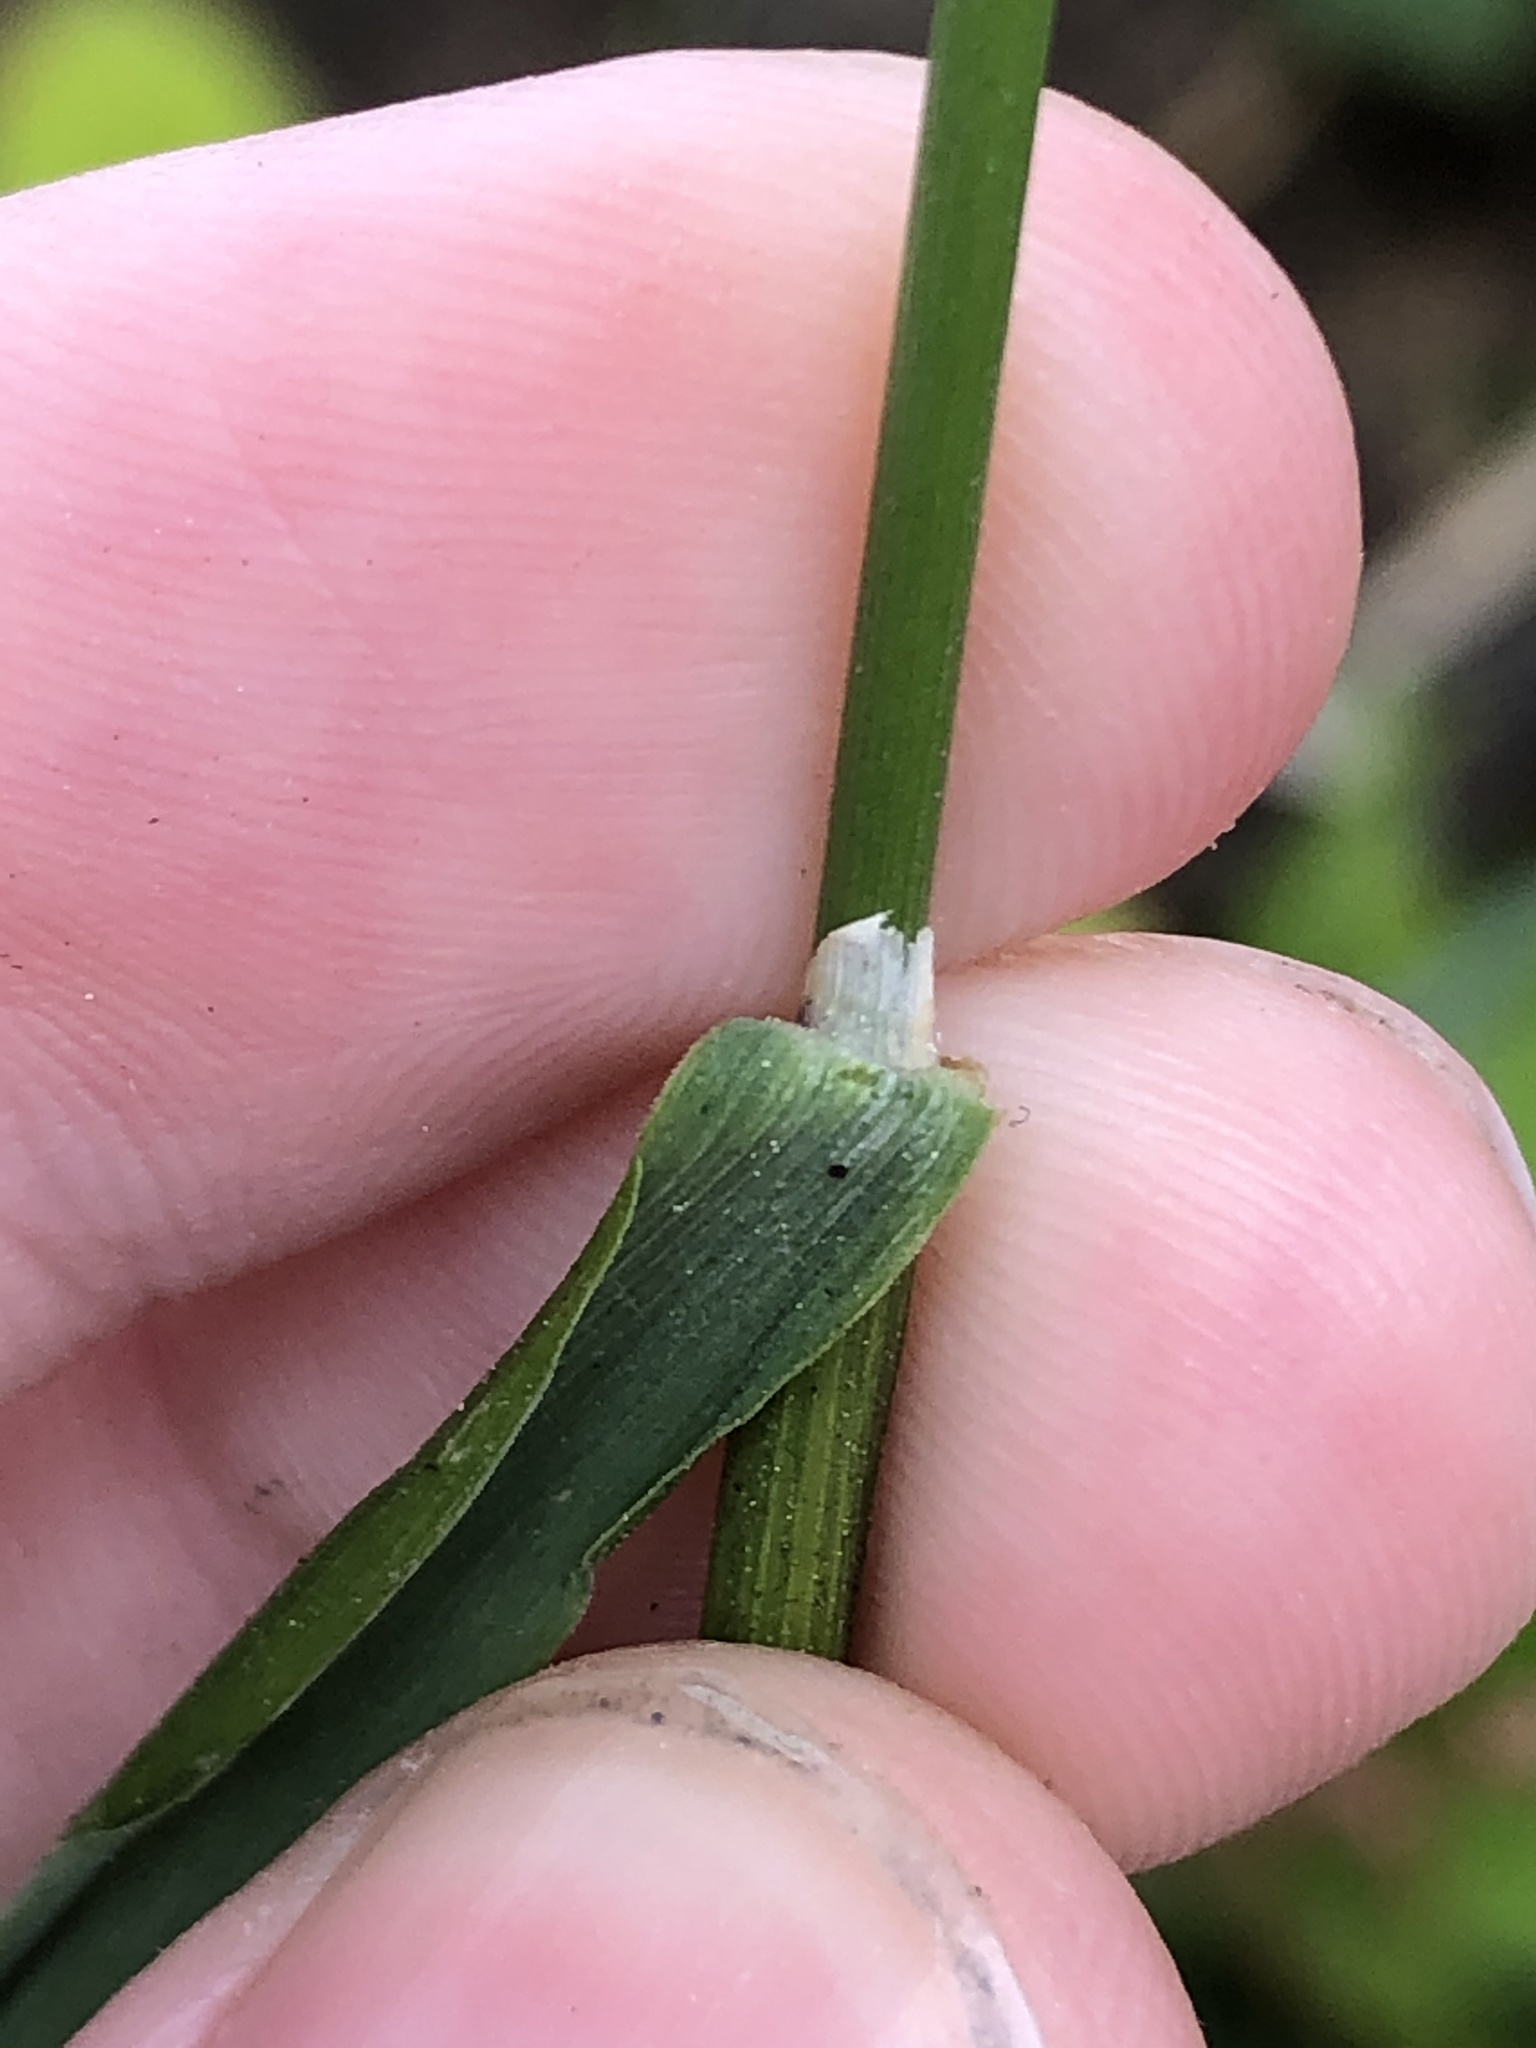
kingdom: Plantae
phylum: Tracheophyta
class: Liliopsida
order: Poales
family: Poaceae
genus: Calamagrostis
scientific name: Calamagrostis nutkaensis
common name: Pacific reed grass
